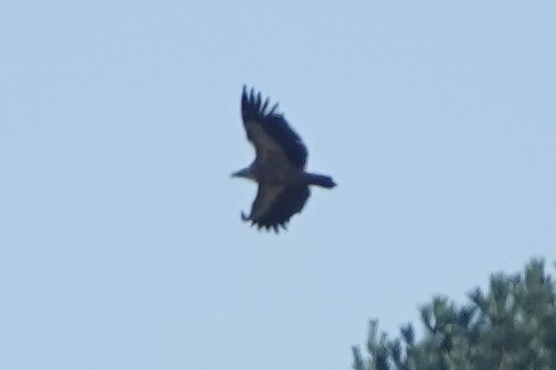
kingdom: Animalia
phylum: Chordata
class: Aves
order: Accipitriformes
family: Accipitridae
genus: Gyps
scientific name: Gyps fulvus
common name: Griffon vulture
